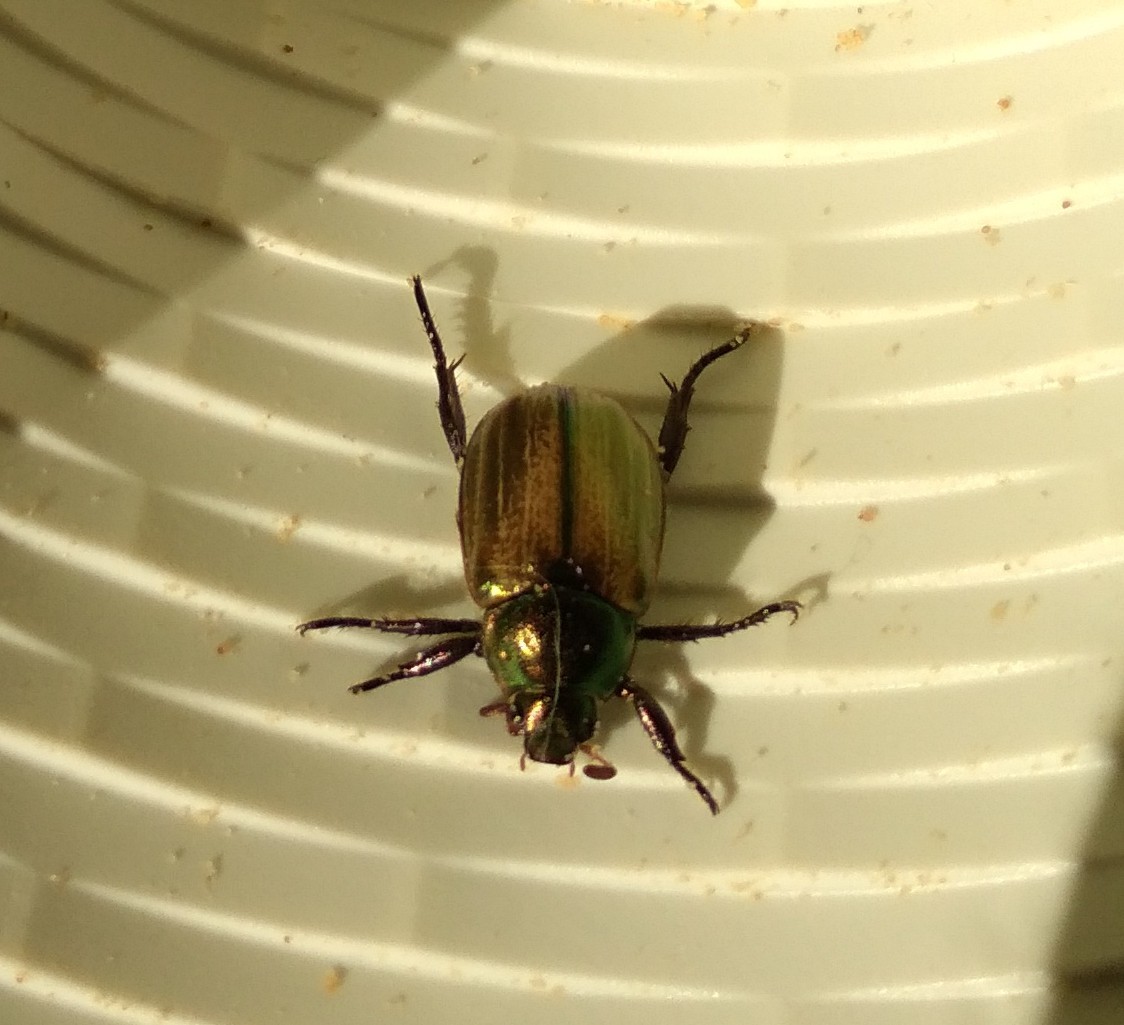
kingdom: Animalia
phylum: Arthropoda
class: Insecta
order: Coleoptera
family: Scarabaeidae
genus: Mimela
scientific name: Mimela junii
